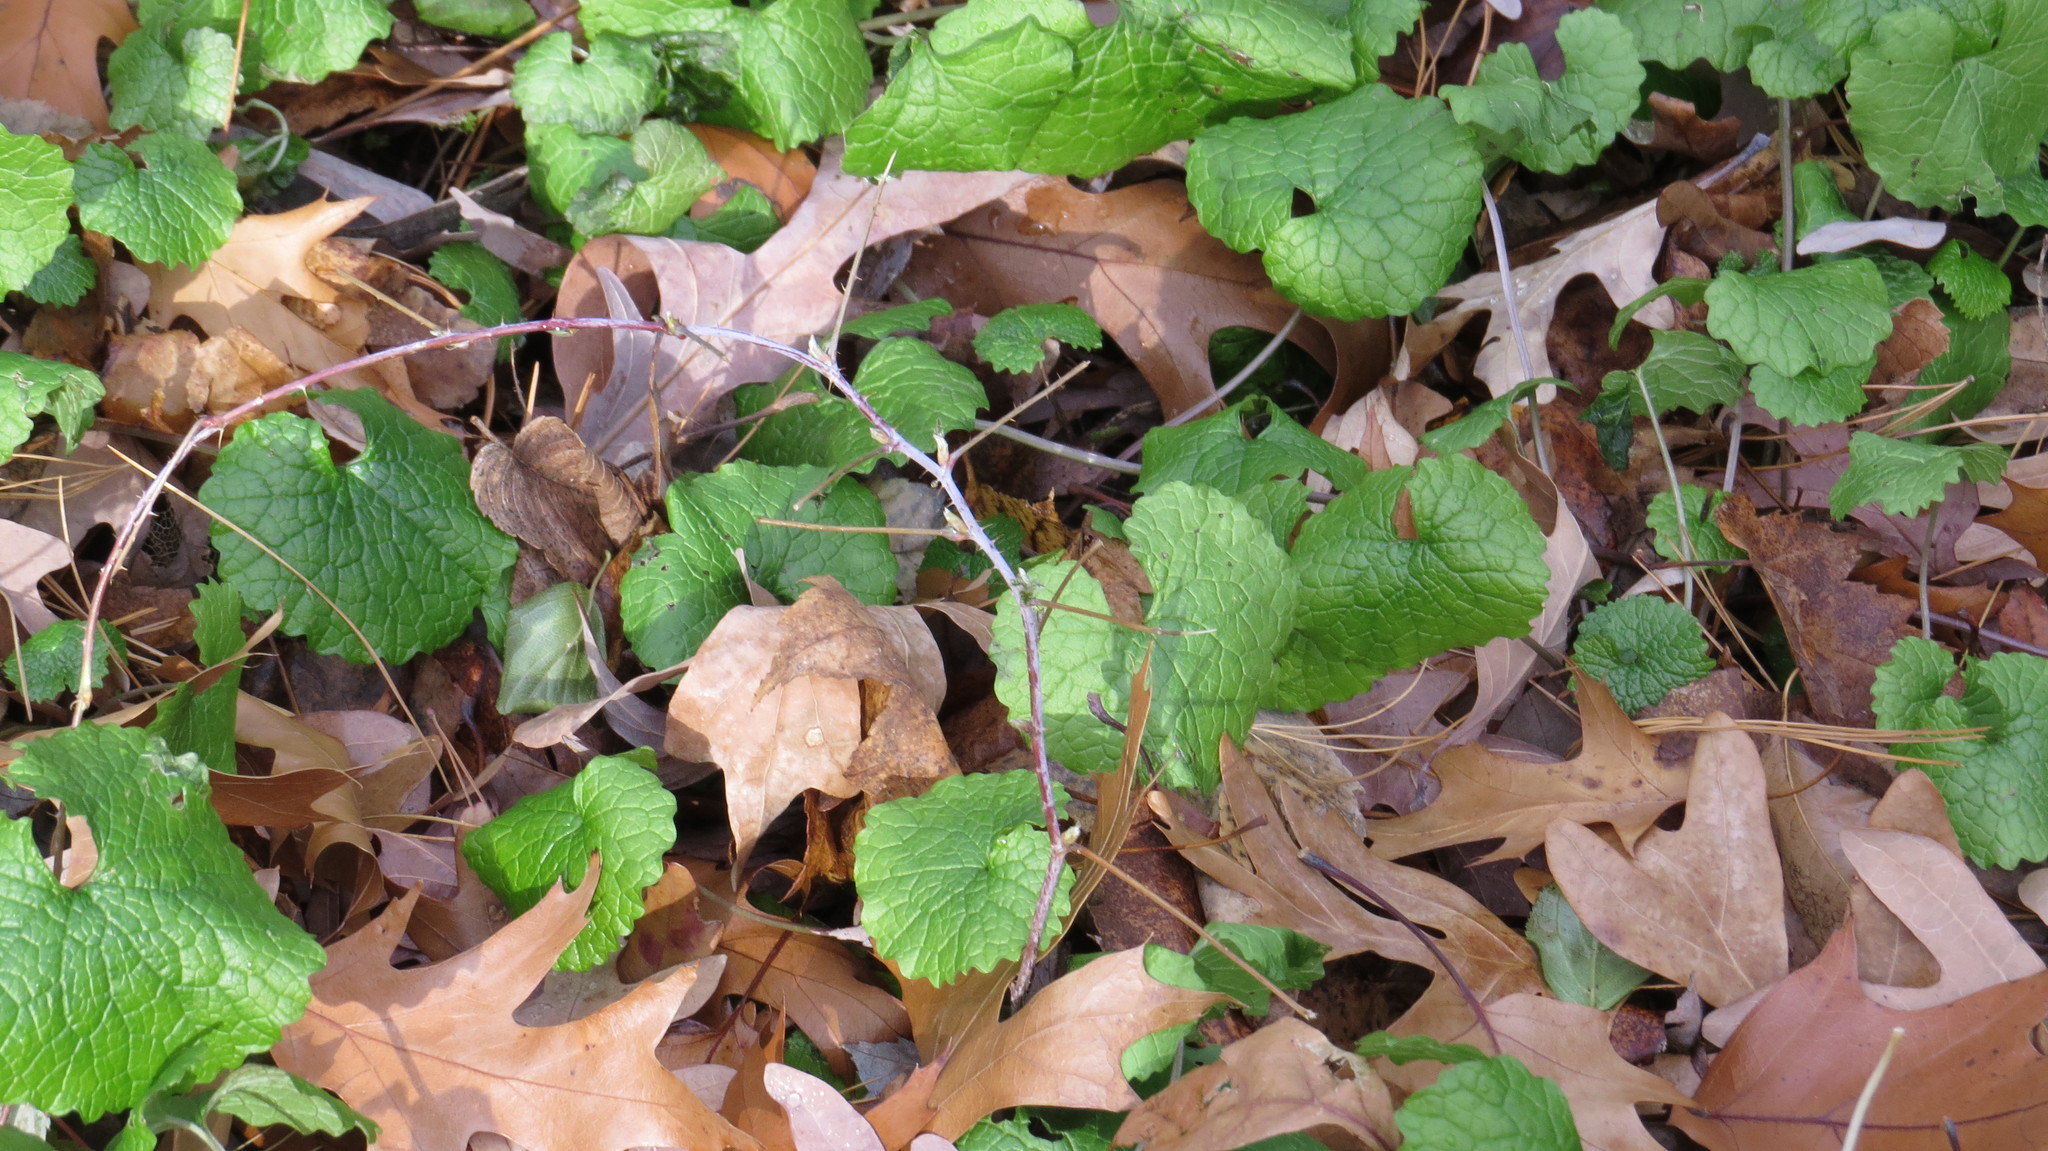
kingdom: Plantae
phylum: Tracheophyta
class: Magnoliopsida
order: Brassicales
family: Brassicaceae
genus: Alliaria
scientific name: Alliaria petiolata
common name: Garlic mustard
